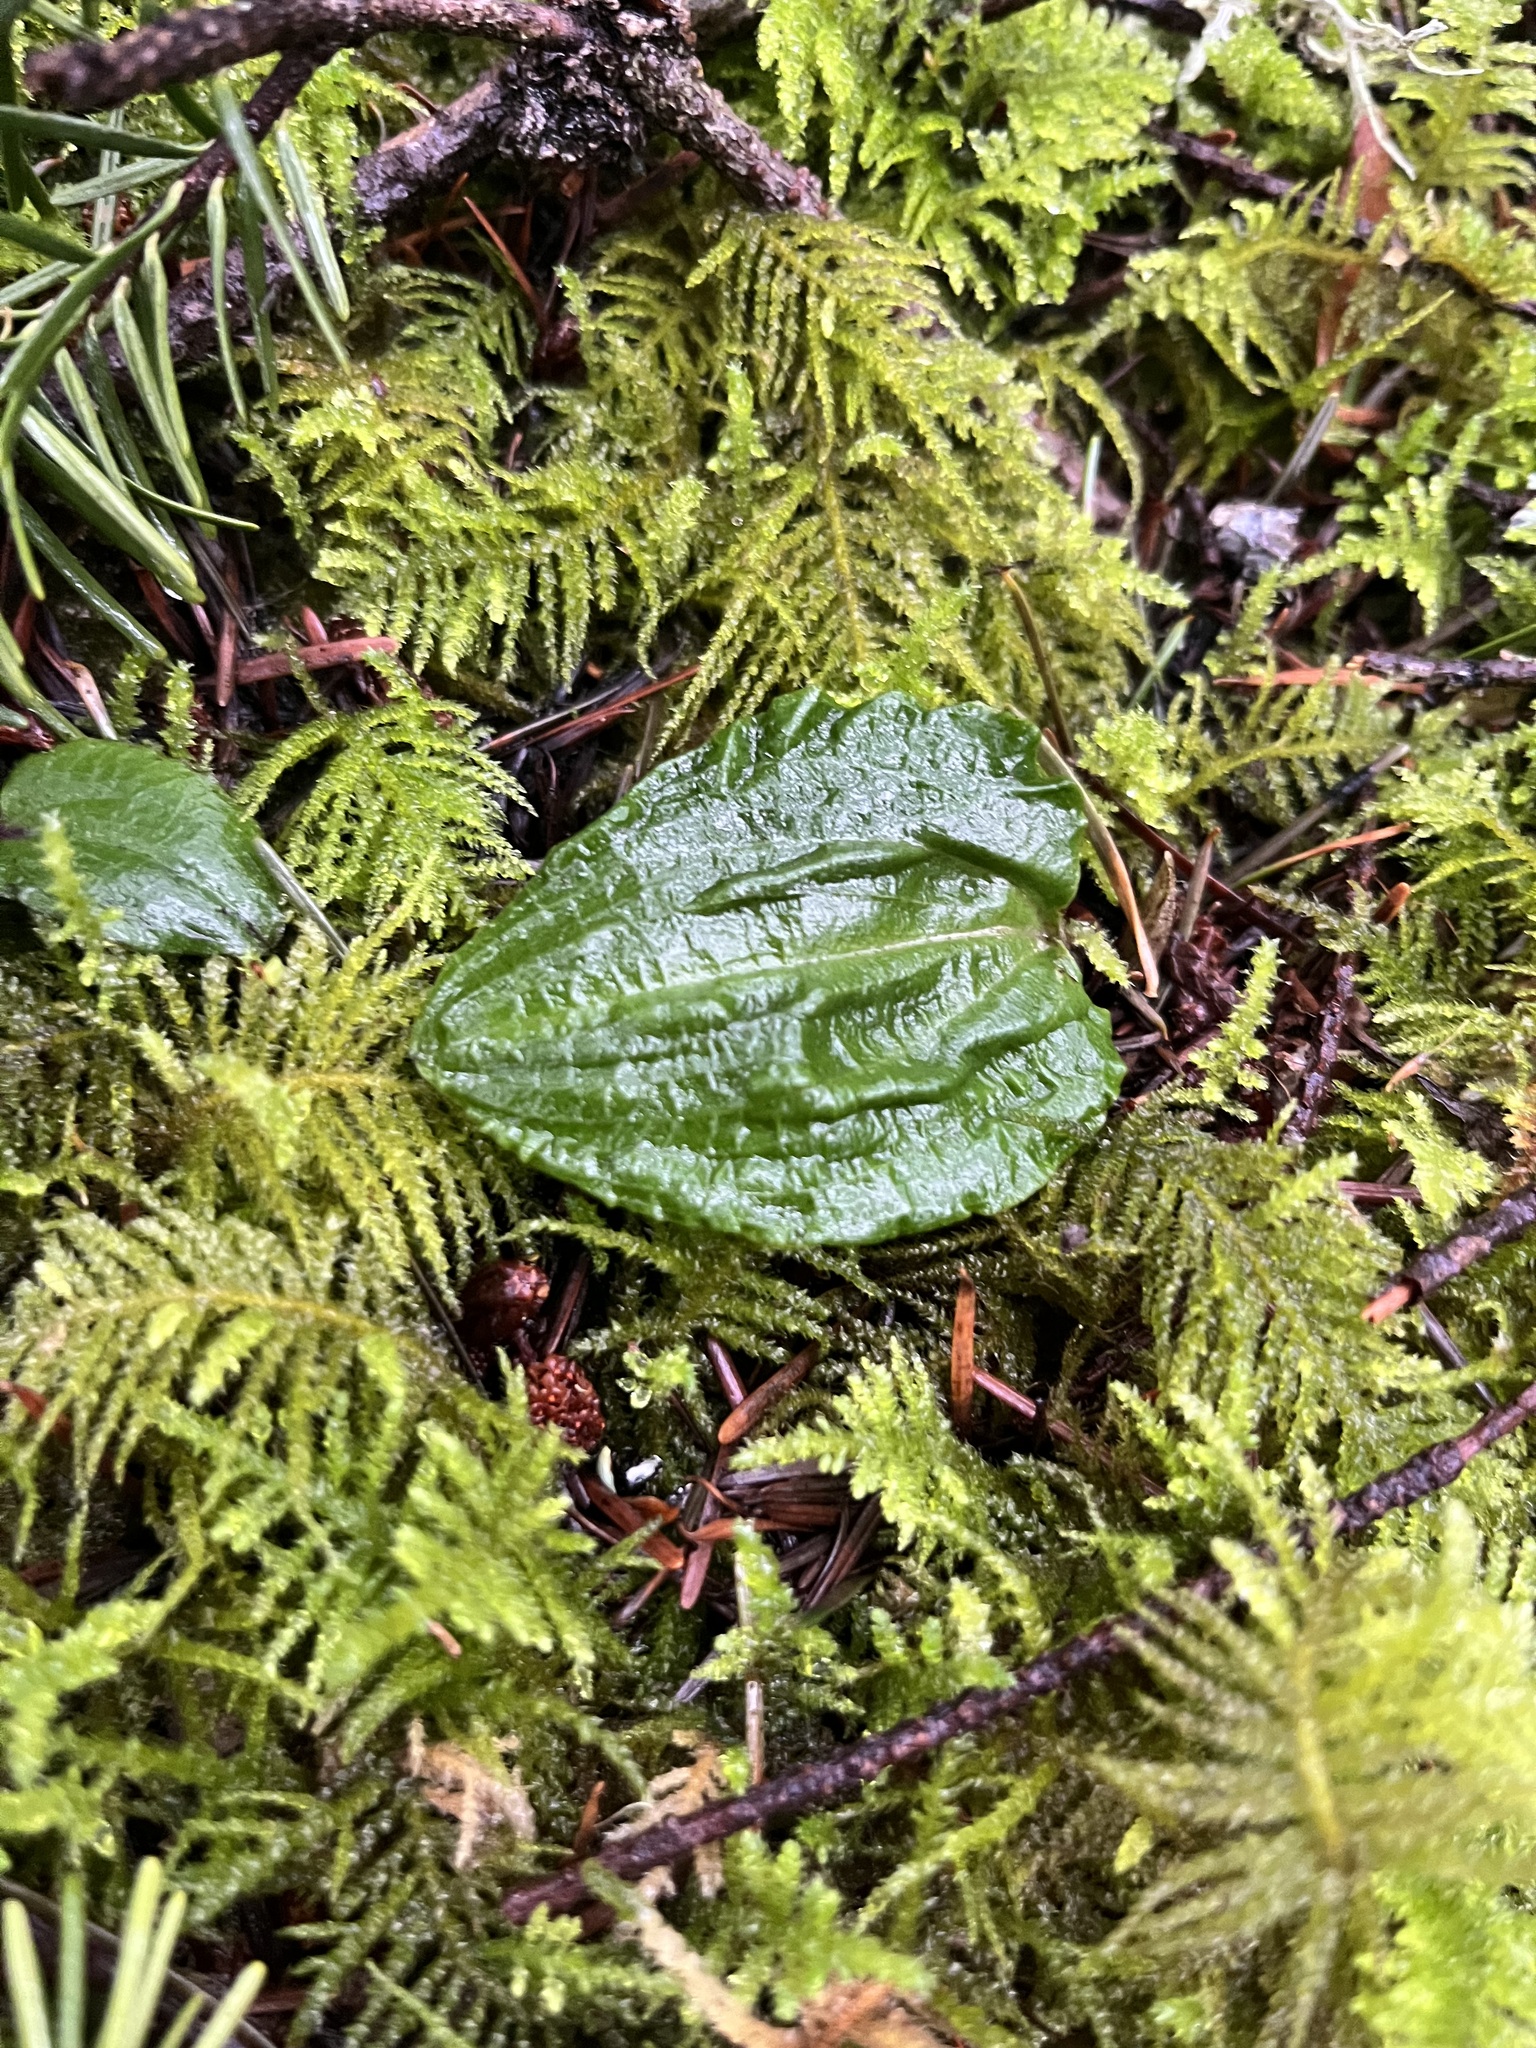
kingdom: Plantae
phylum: Tracheophyta
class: Liliopsida
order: Asparagales
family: Orchidaceae
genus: Calypso
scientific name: Calypso bulbosa
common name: Calypso
